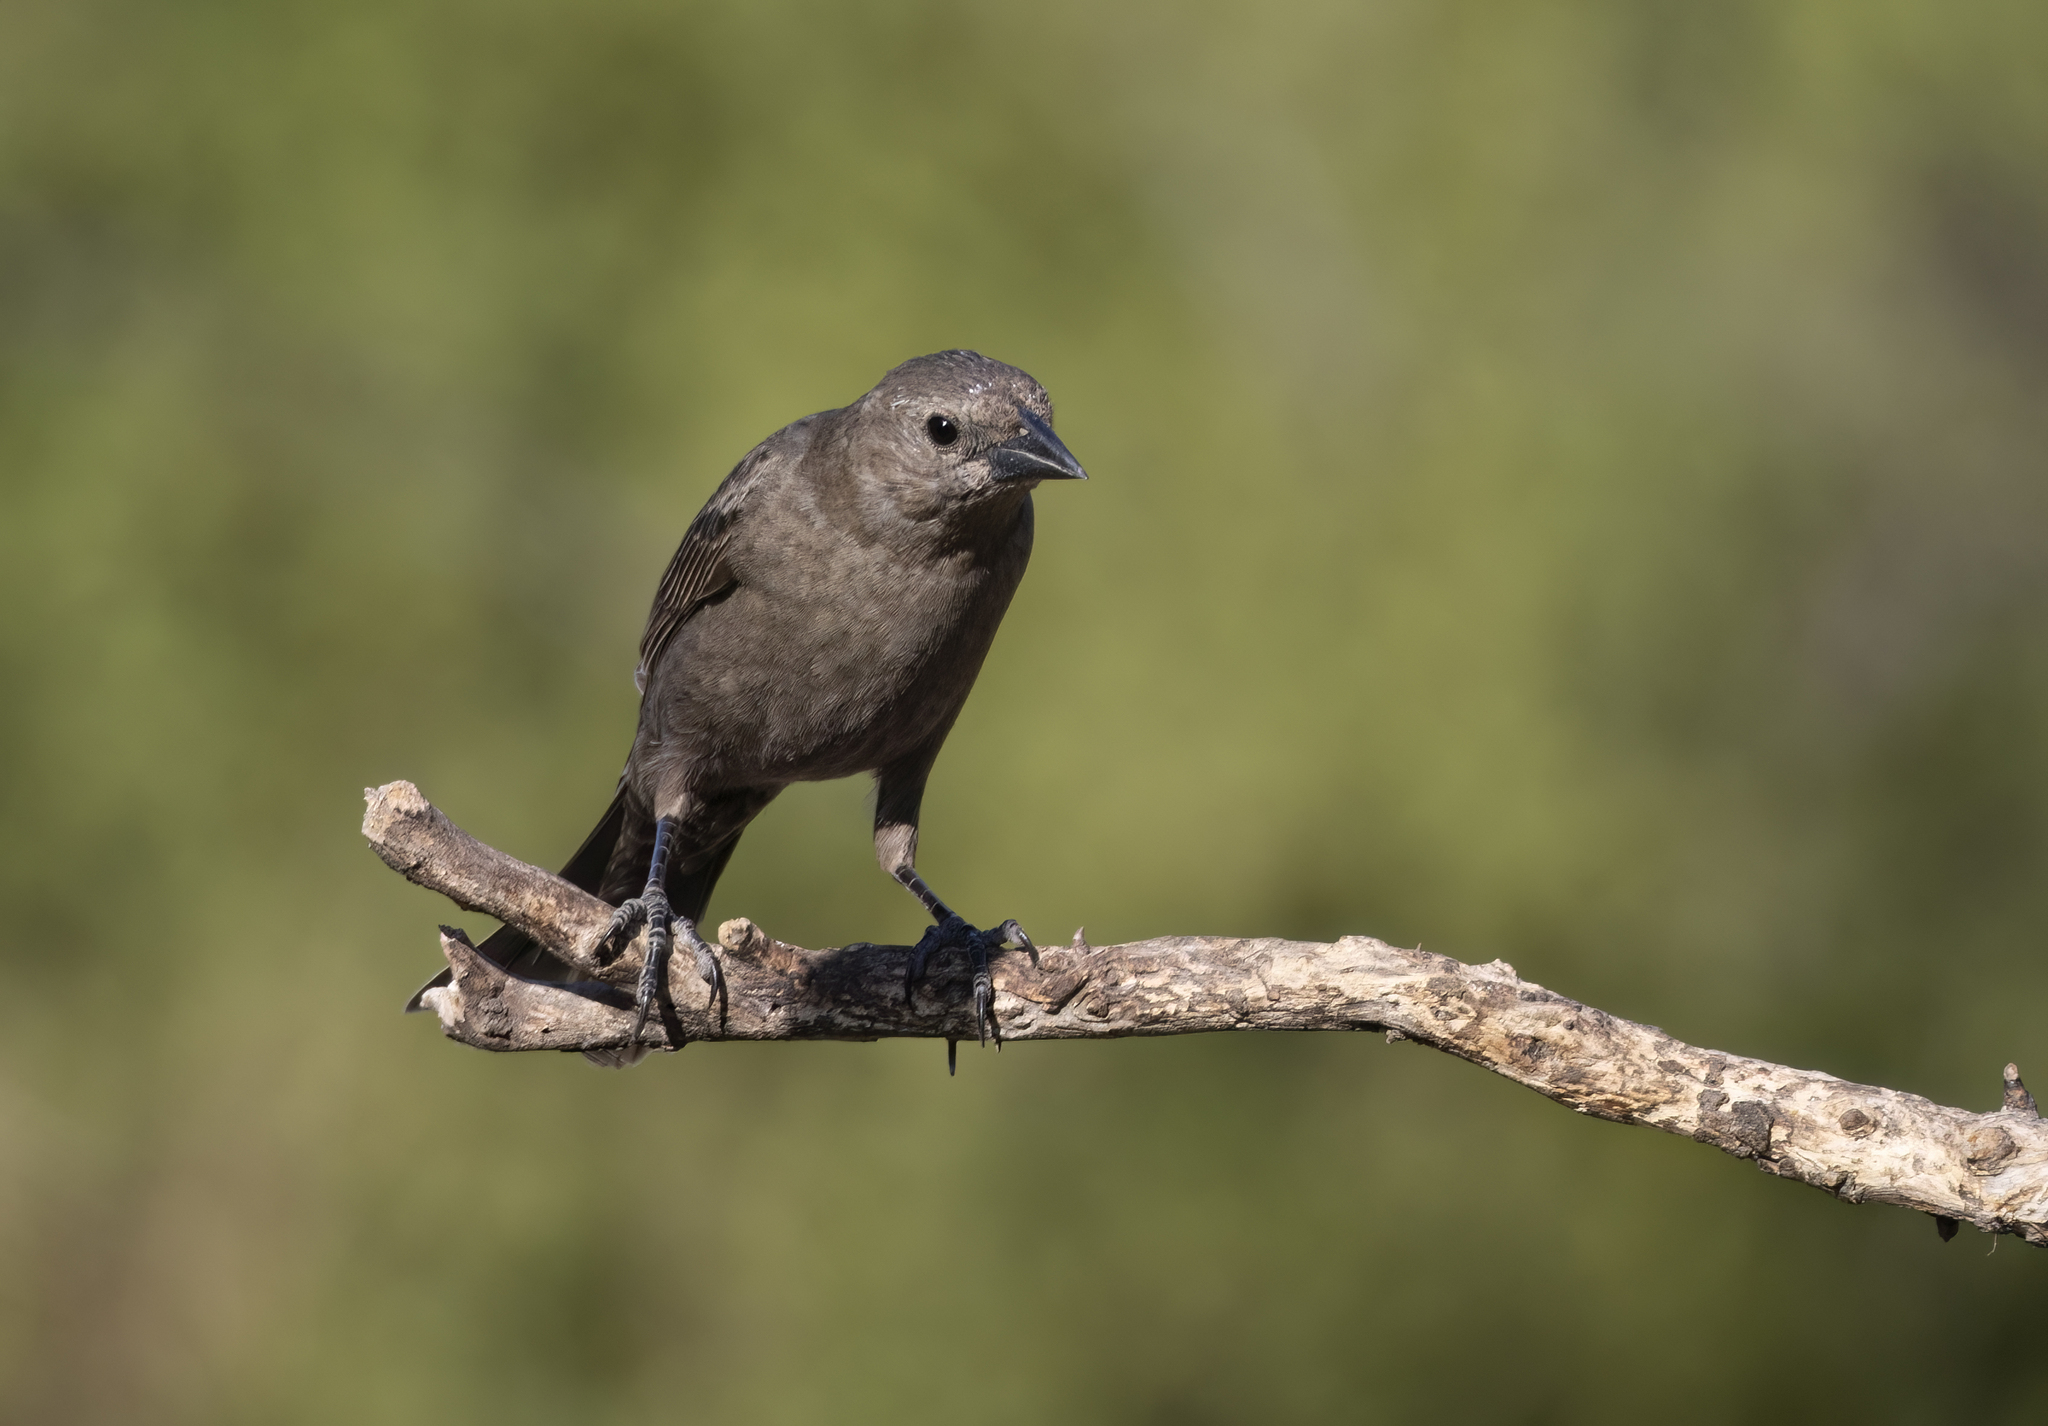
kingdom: Animalia
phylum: Chordata
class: Aves
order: Passeriformes
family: Icteridae
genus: Molothrus
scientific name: Molothrus bonariensis
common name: Shiny cowbird
